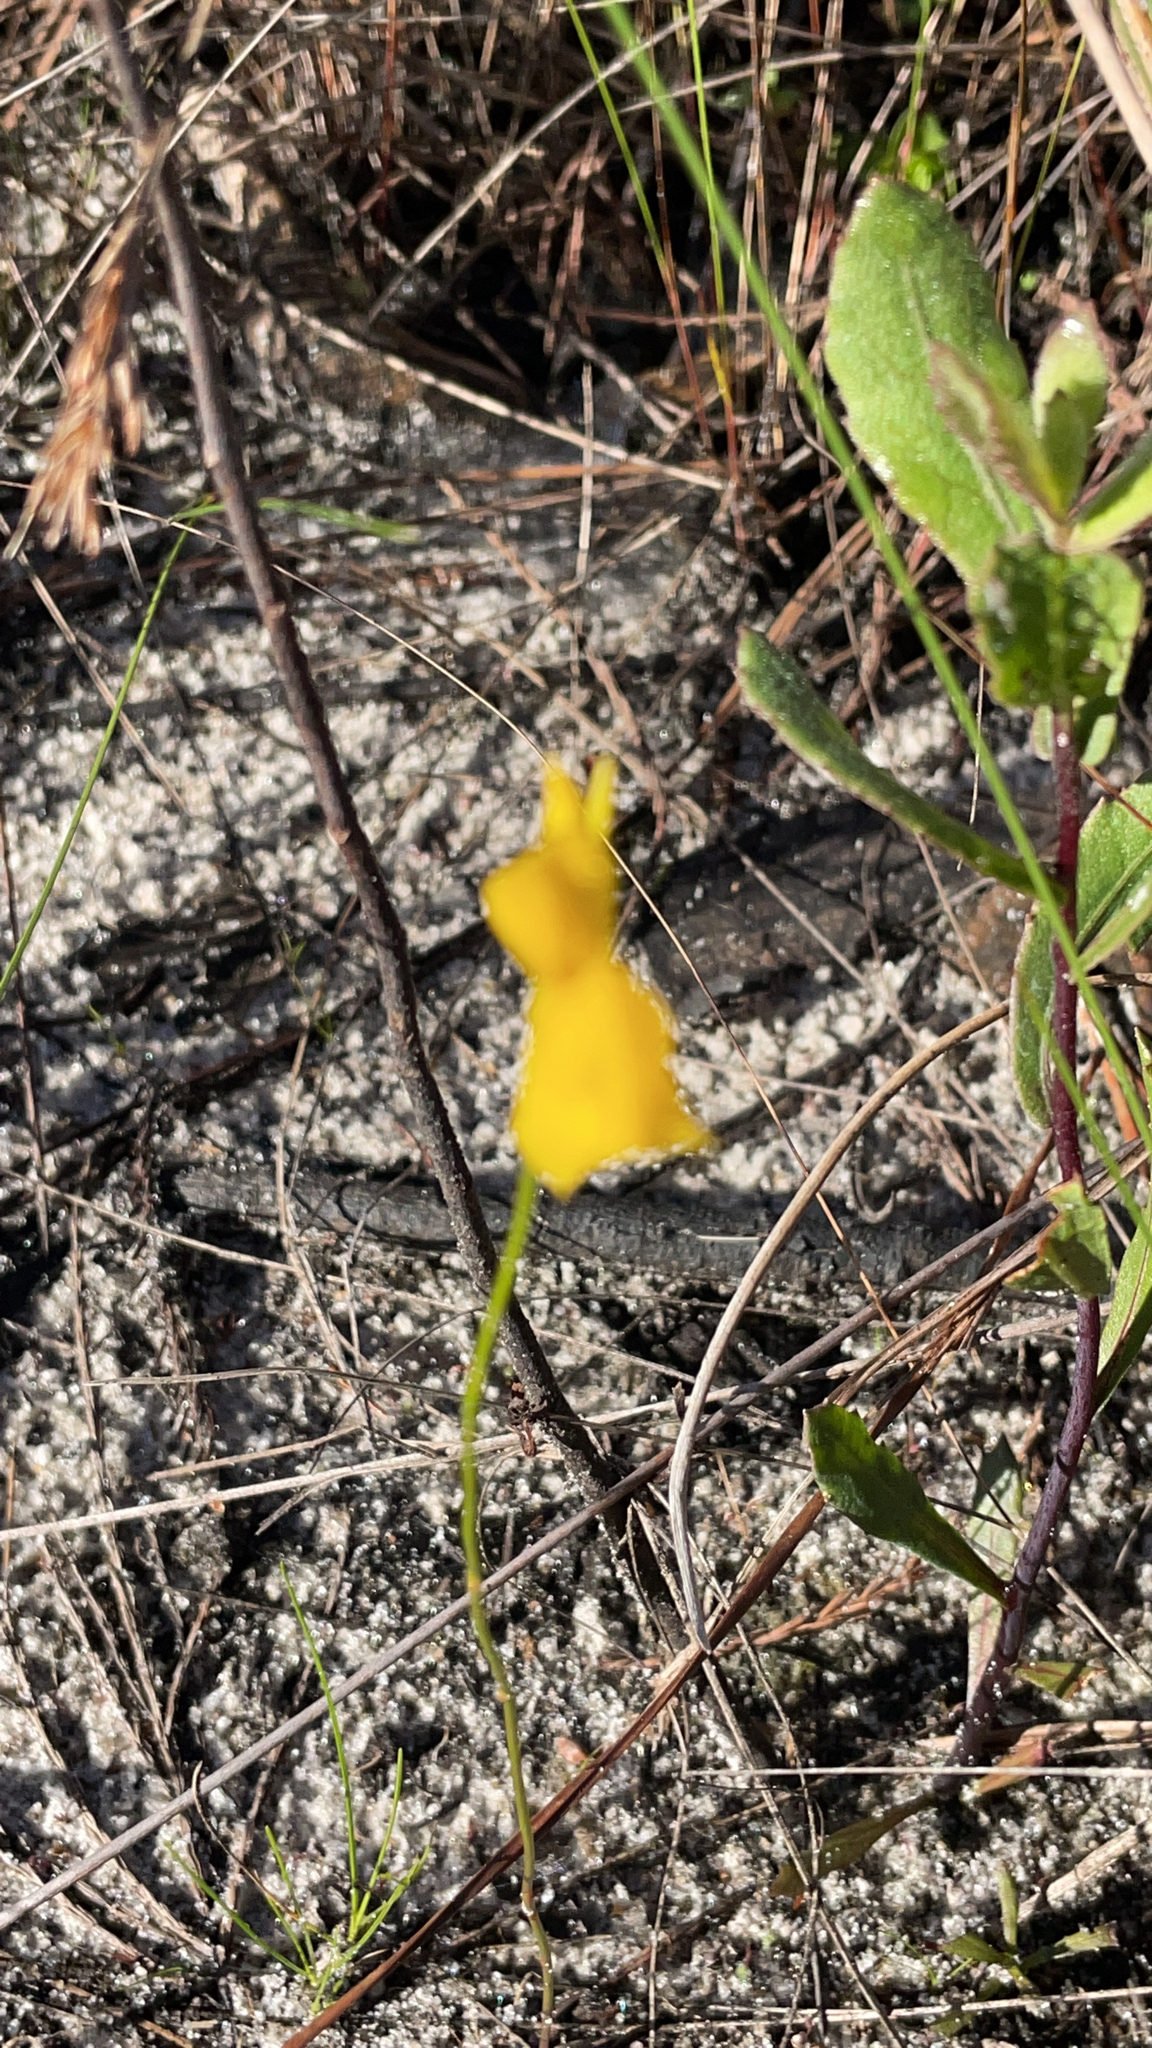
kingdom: Plantae
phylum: Tracheophyta
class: Magnoliopsida
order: Lamiales
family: Lentibulariaceae
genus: Utricularia
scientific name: Utricularia cornuta
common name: Horned bladderwort
